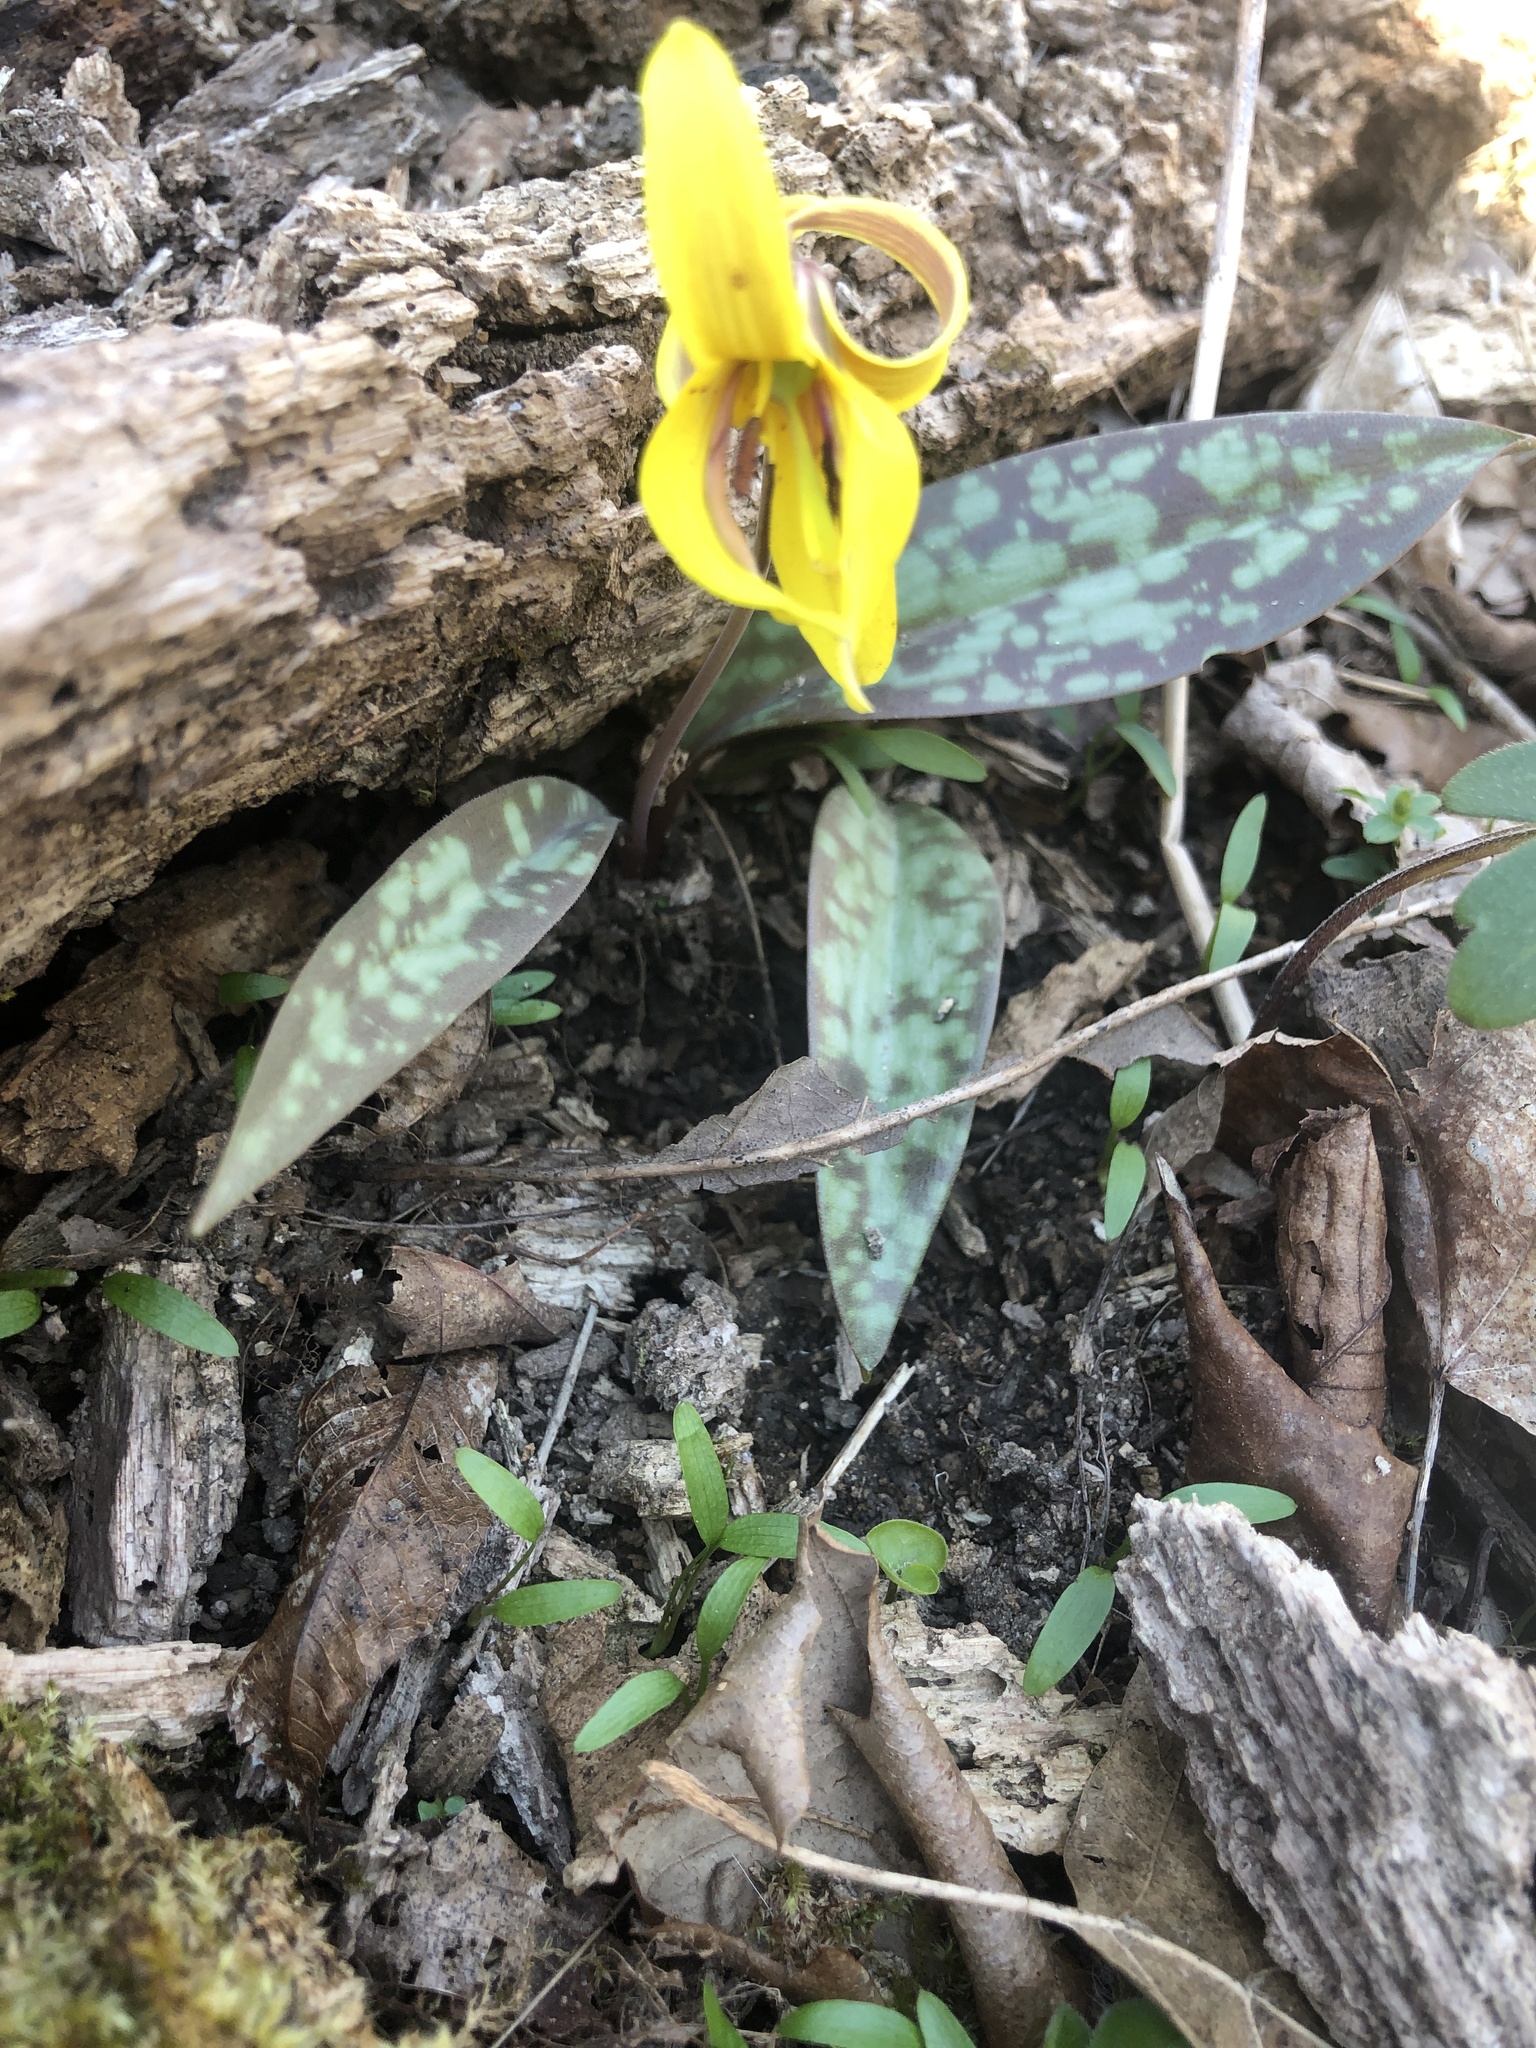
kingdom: Plantae
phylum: Tracheophyta
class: Liliopsida
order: Liliales
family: Liliaceae
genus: Erythronium
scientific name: Erythronium americanum
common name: Yellow adder's-tongue
